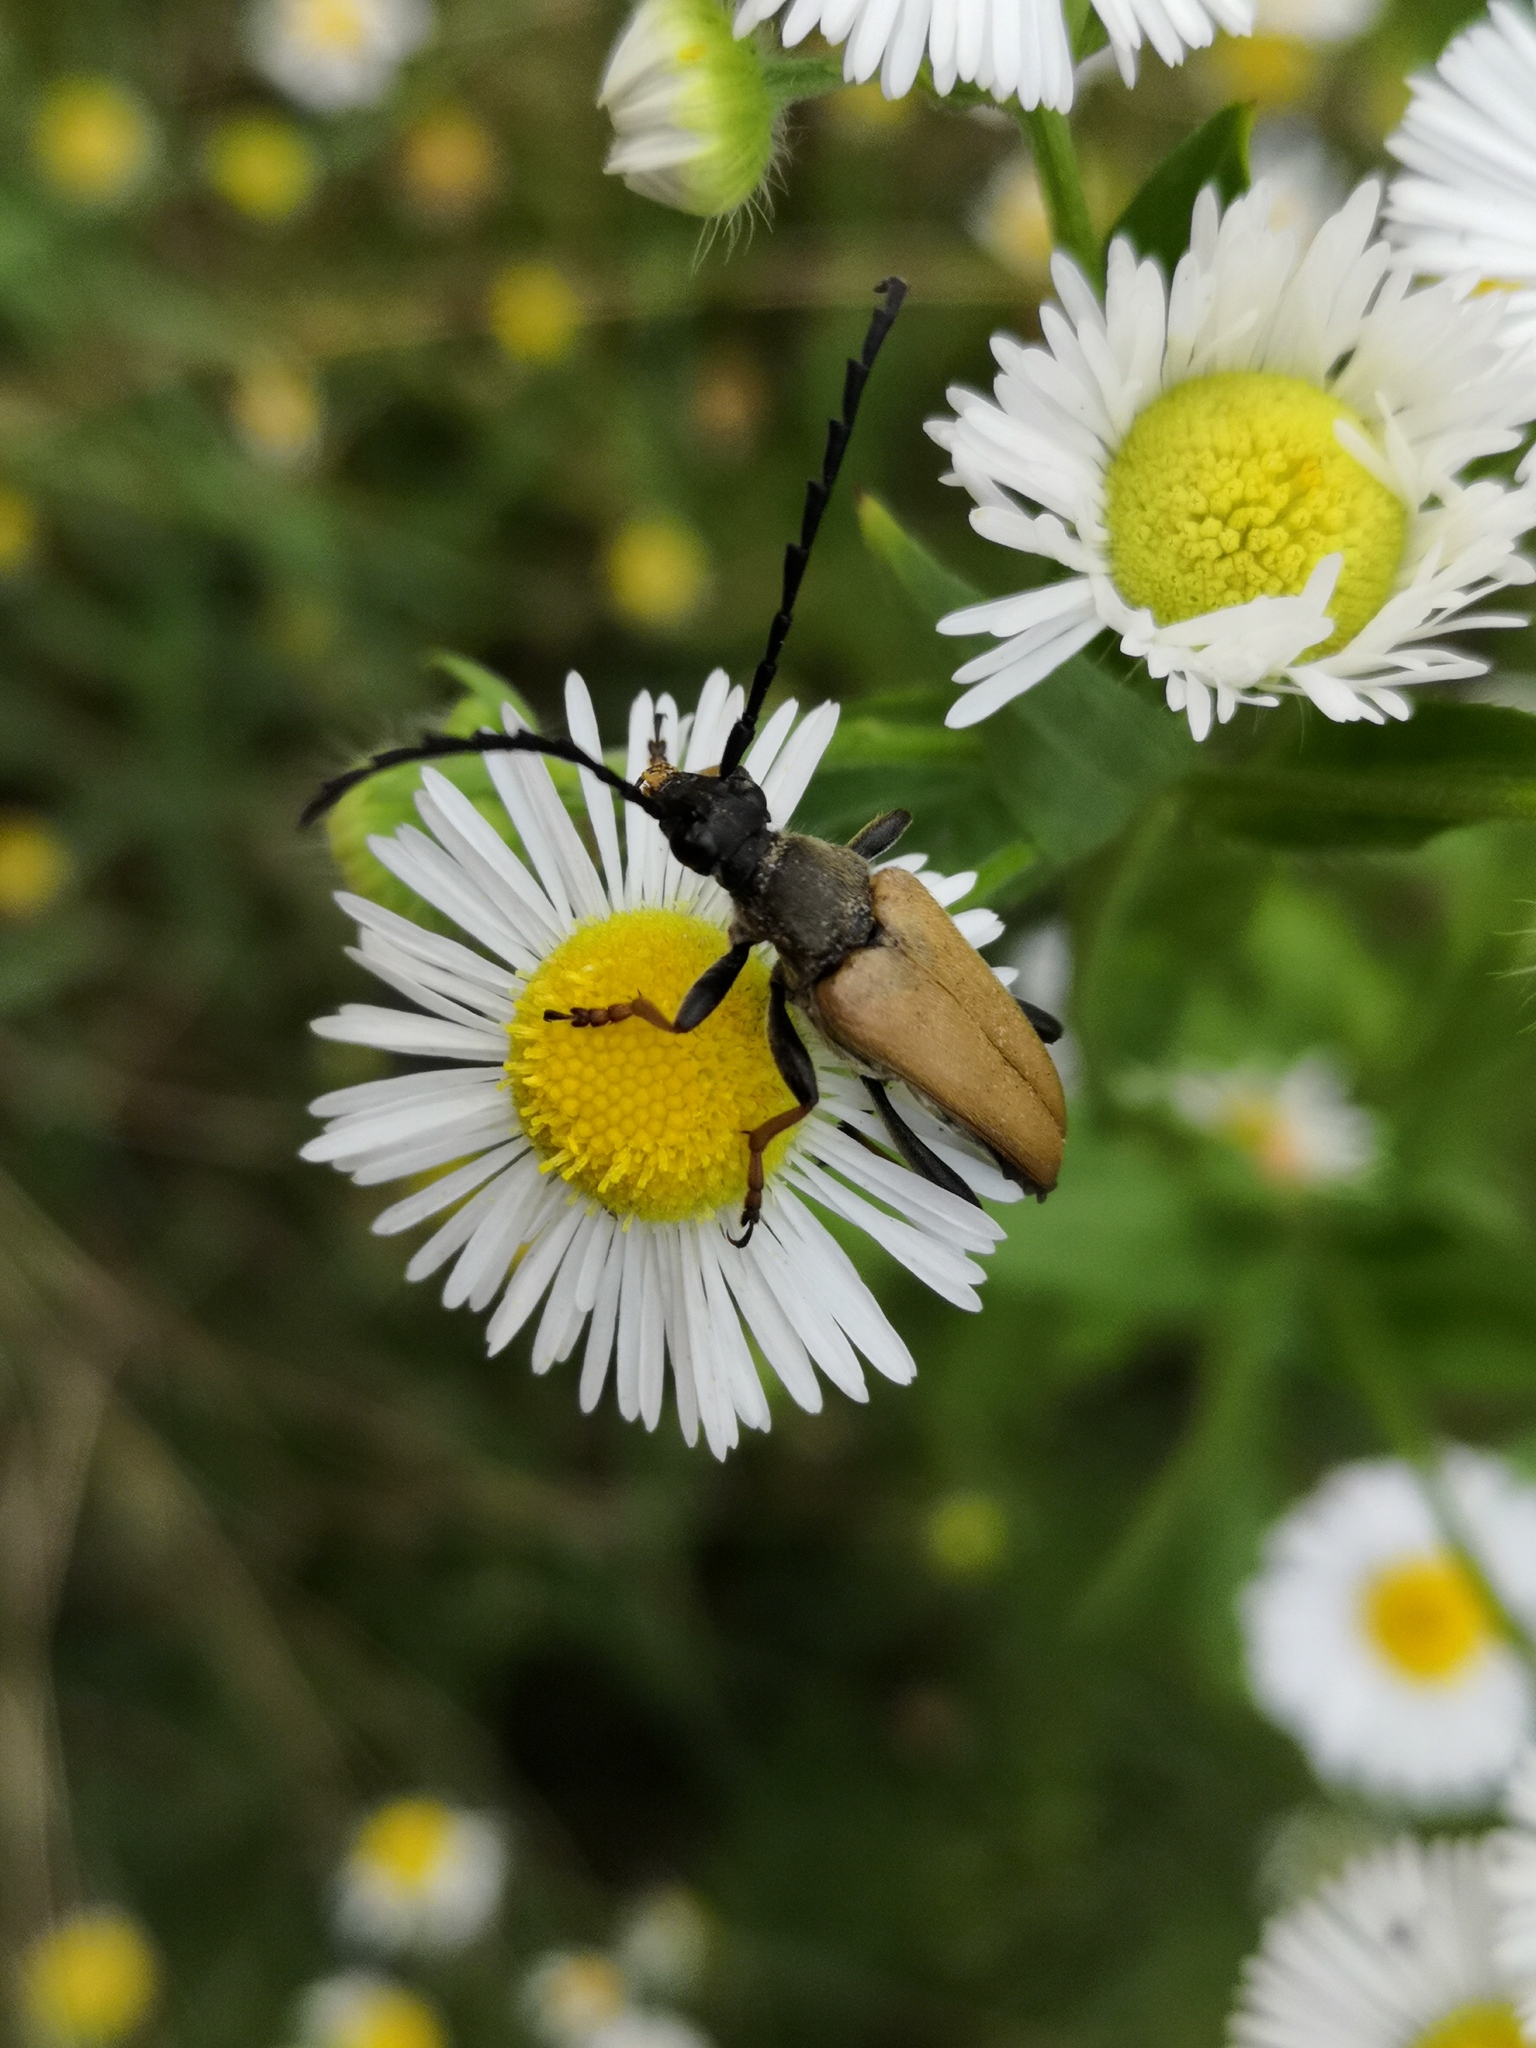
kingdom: Animalia
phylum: Arthropoda
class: Insecta
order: Coleoptera
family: Cerambycidae
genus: Stictoleptura
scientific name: Stictoleptura rubra
